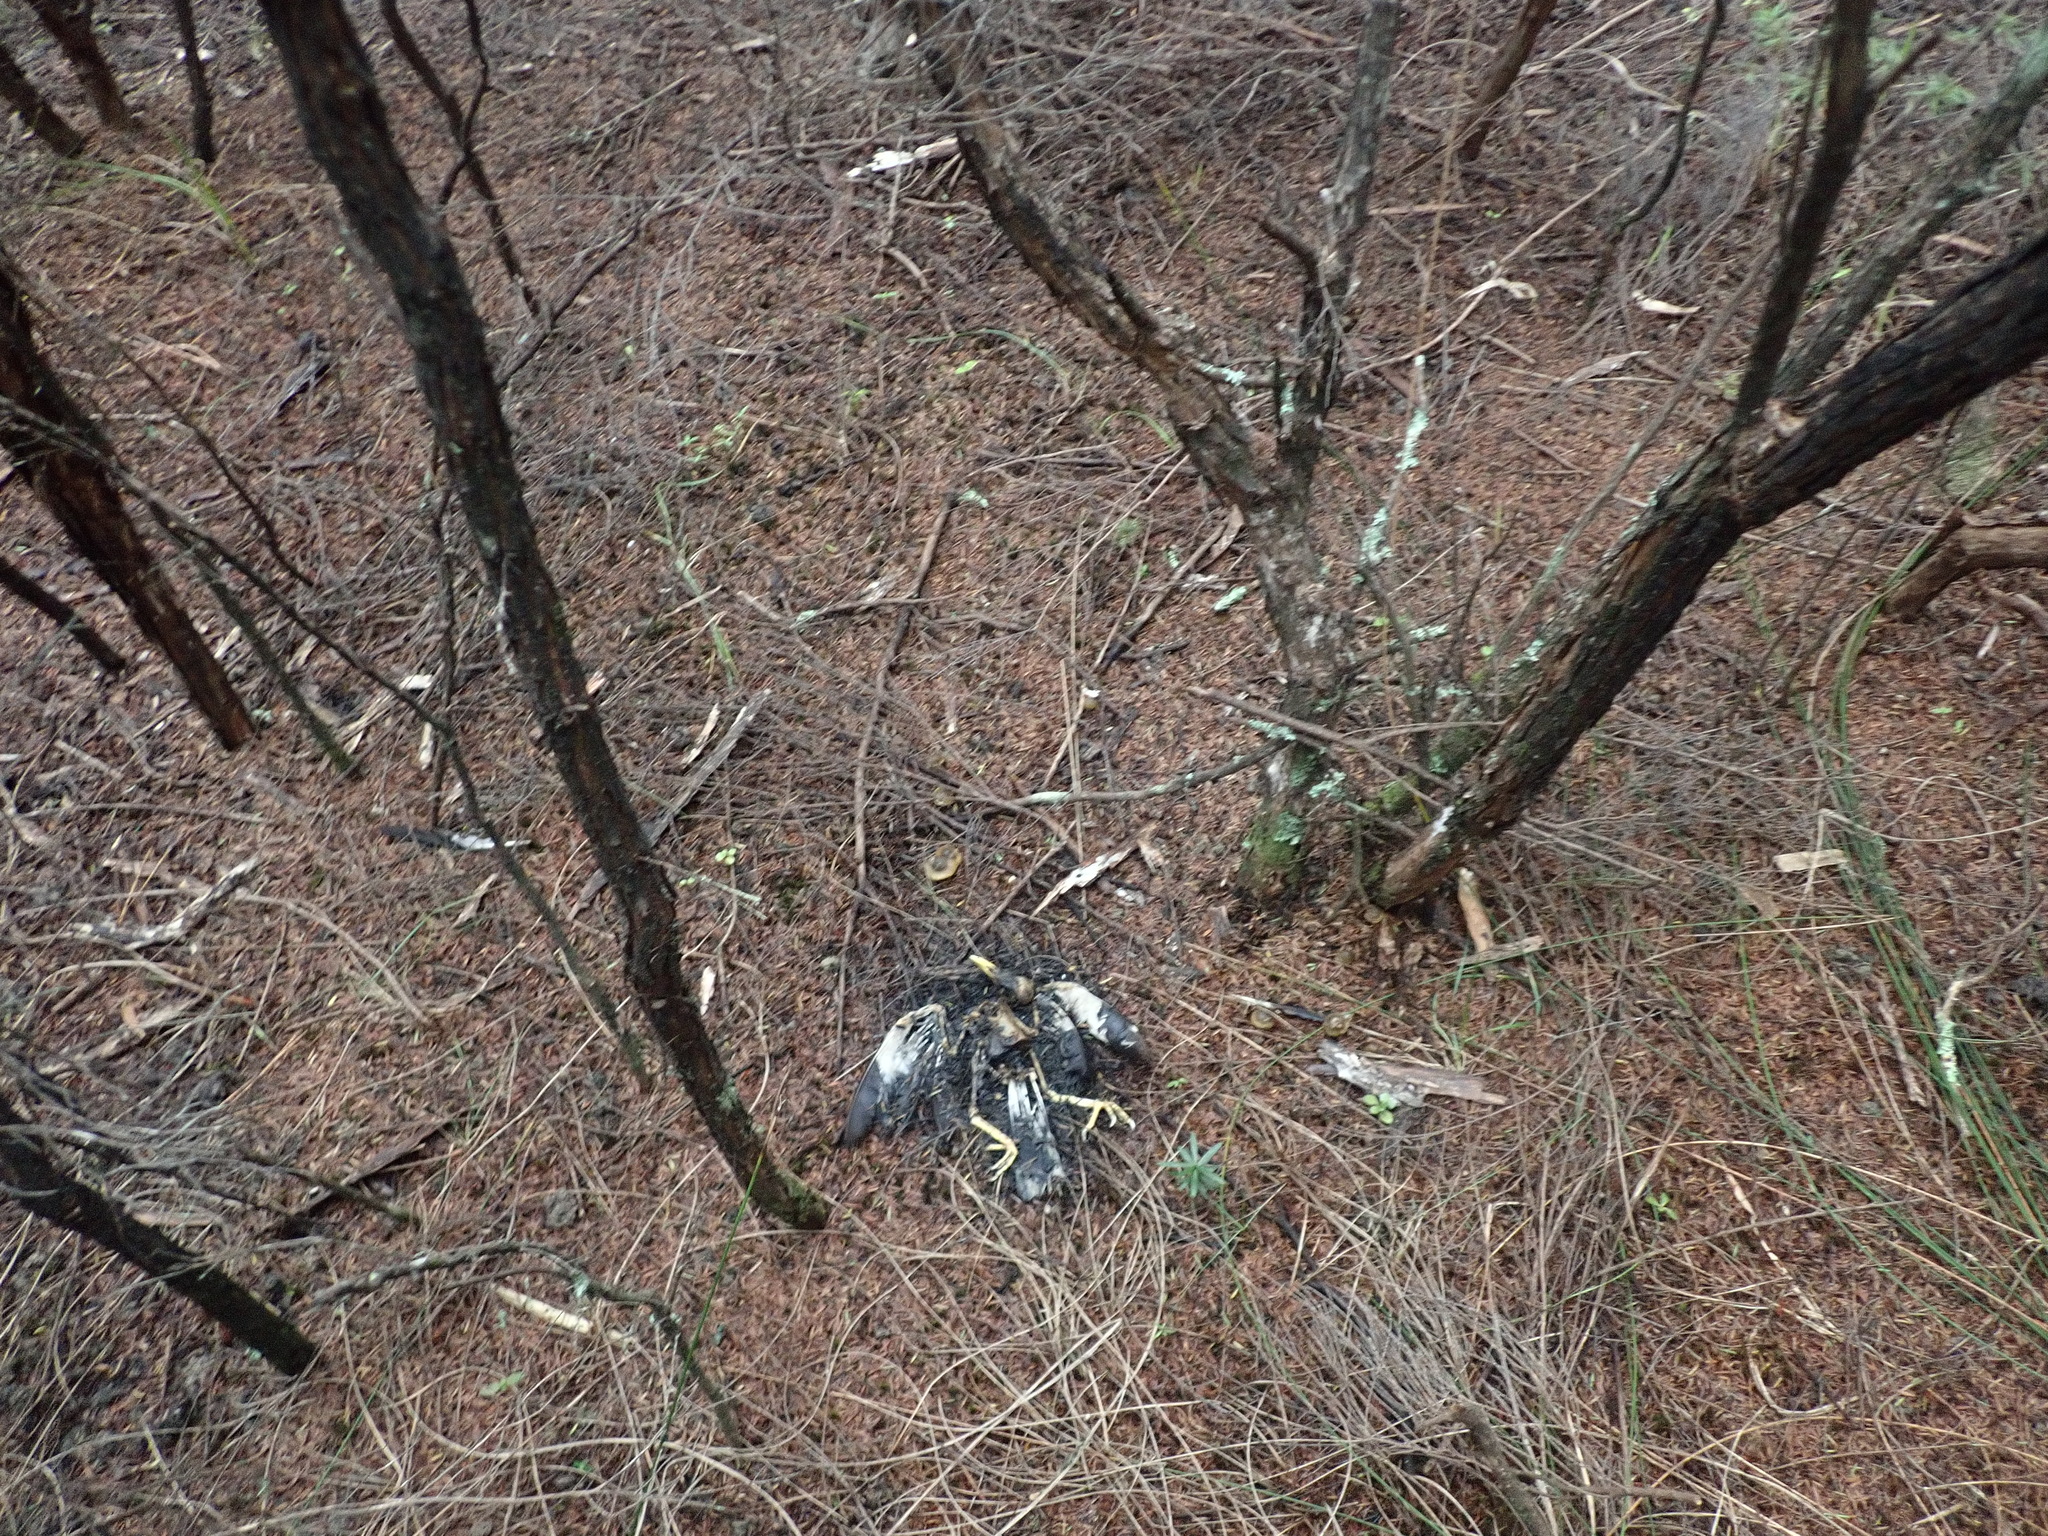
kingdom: Animalia
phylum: Chordata
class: Aves
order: Passeriformes
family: Sturnidae
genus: Acridotheres
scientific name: Acridotheres tristis
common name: Common myna
